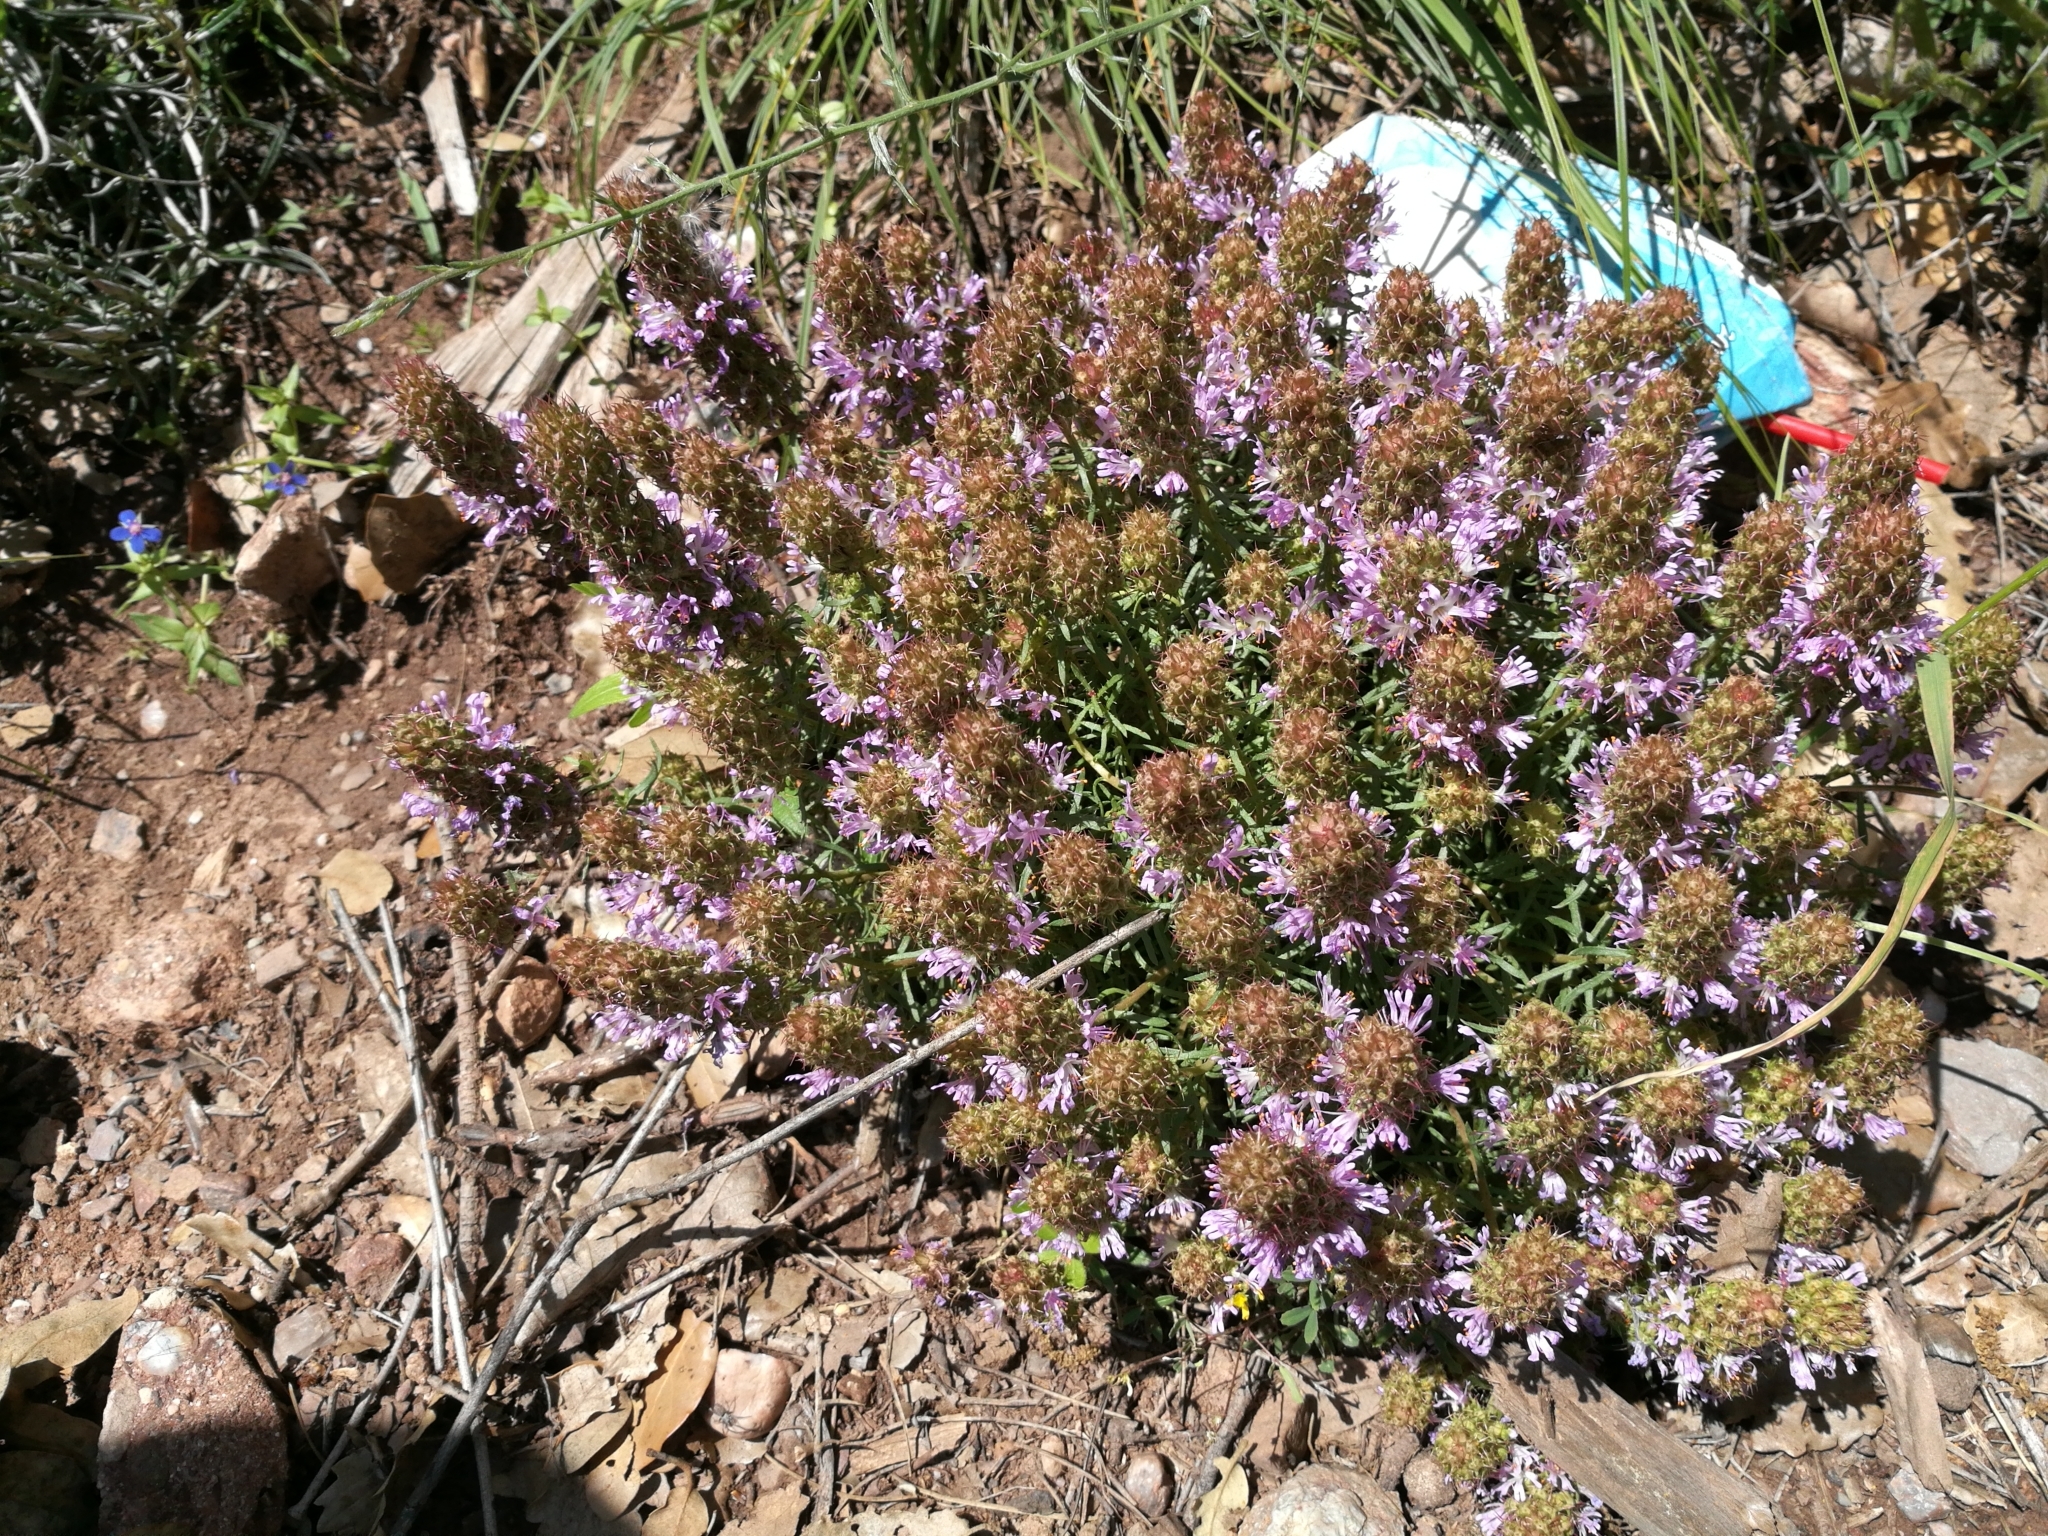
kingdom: Plantae
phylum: Tracheophyta
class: Magnoliopsida
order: Ericales
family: Primulaceae
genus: Coris
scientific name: Coris monspeliensis
